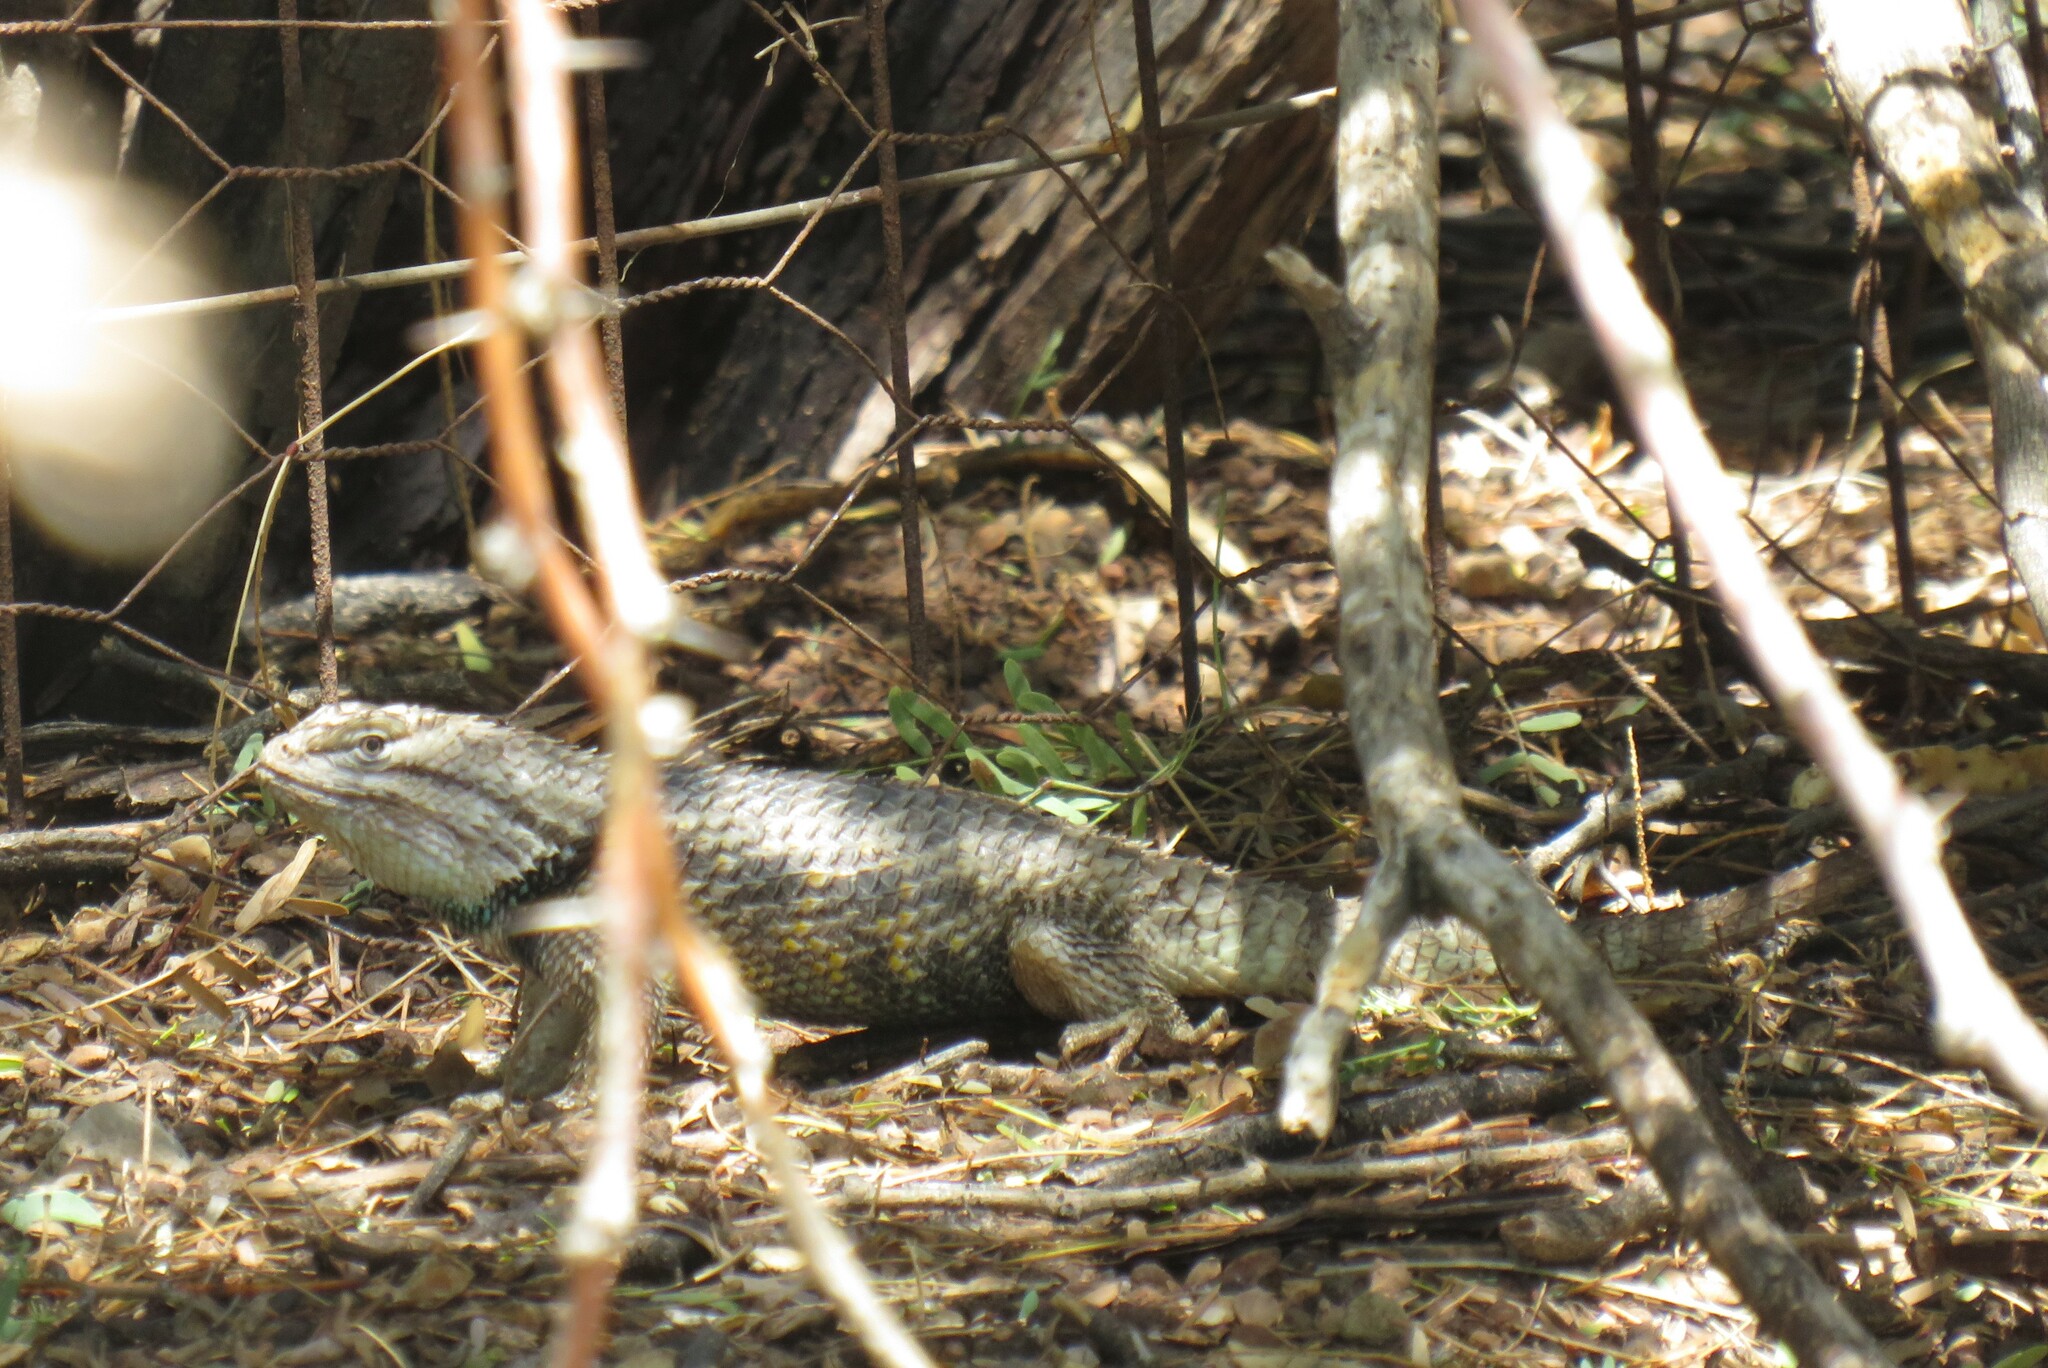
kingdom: Animalia
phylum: Chordata
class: Squamata
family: Phrynosomatidae
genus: Sceloporus
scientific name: Sceloporus magister
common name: Desert spiny lizard
